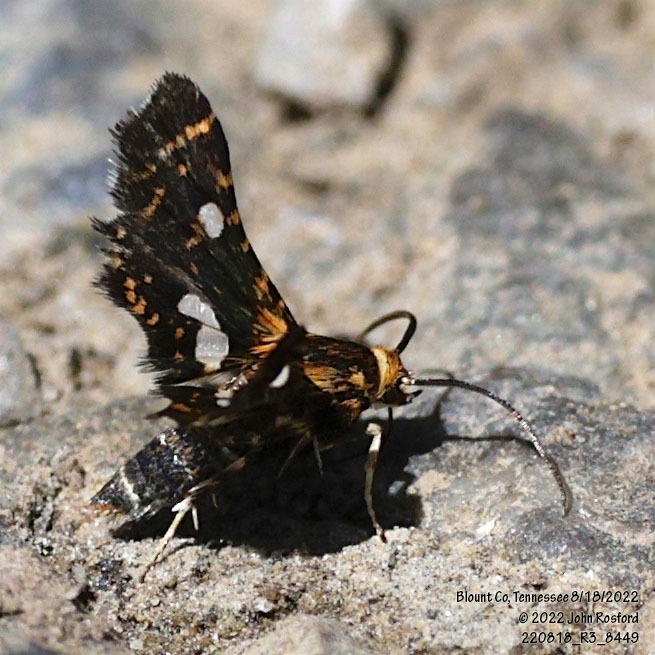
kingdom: Animalia
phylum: Arthropoda
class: Insecta
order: Lepidoptera
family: Thyrididae
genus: Thyris
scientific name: Thyris maculata
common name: Spotted thyris moth
